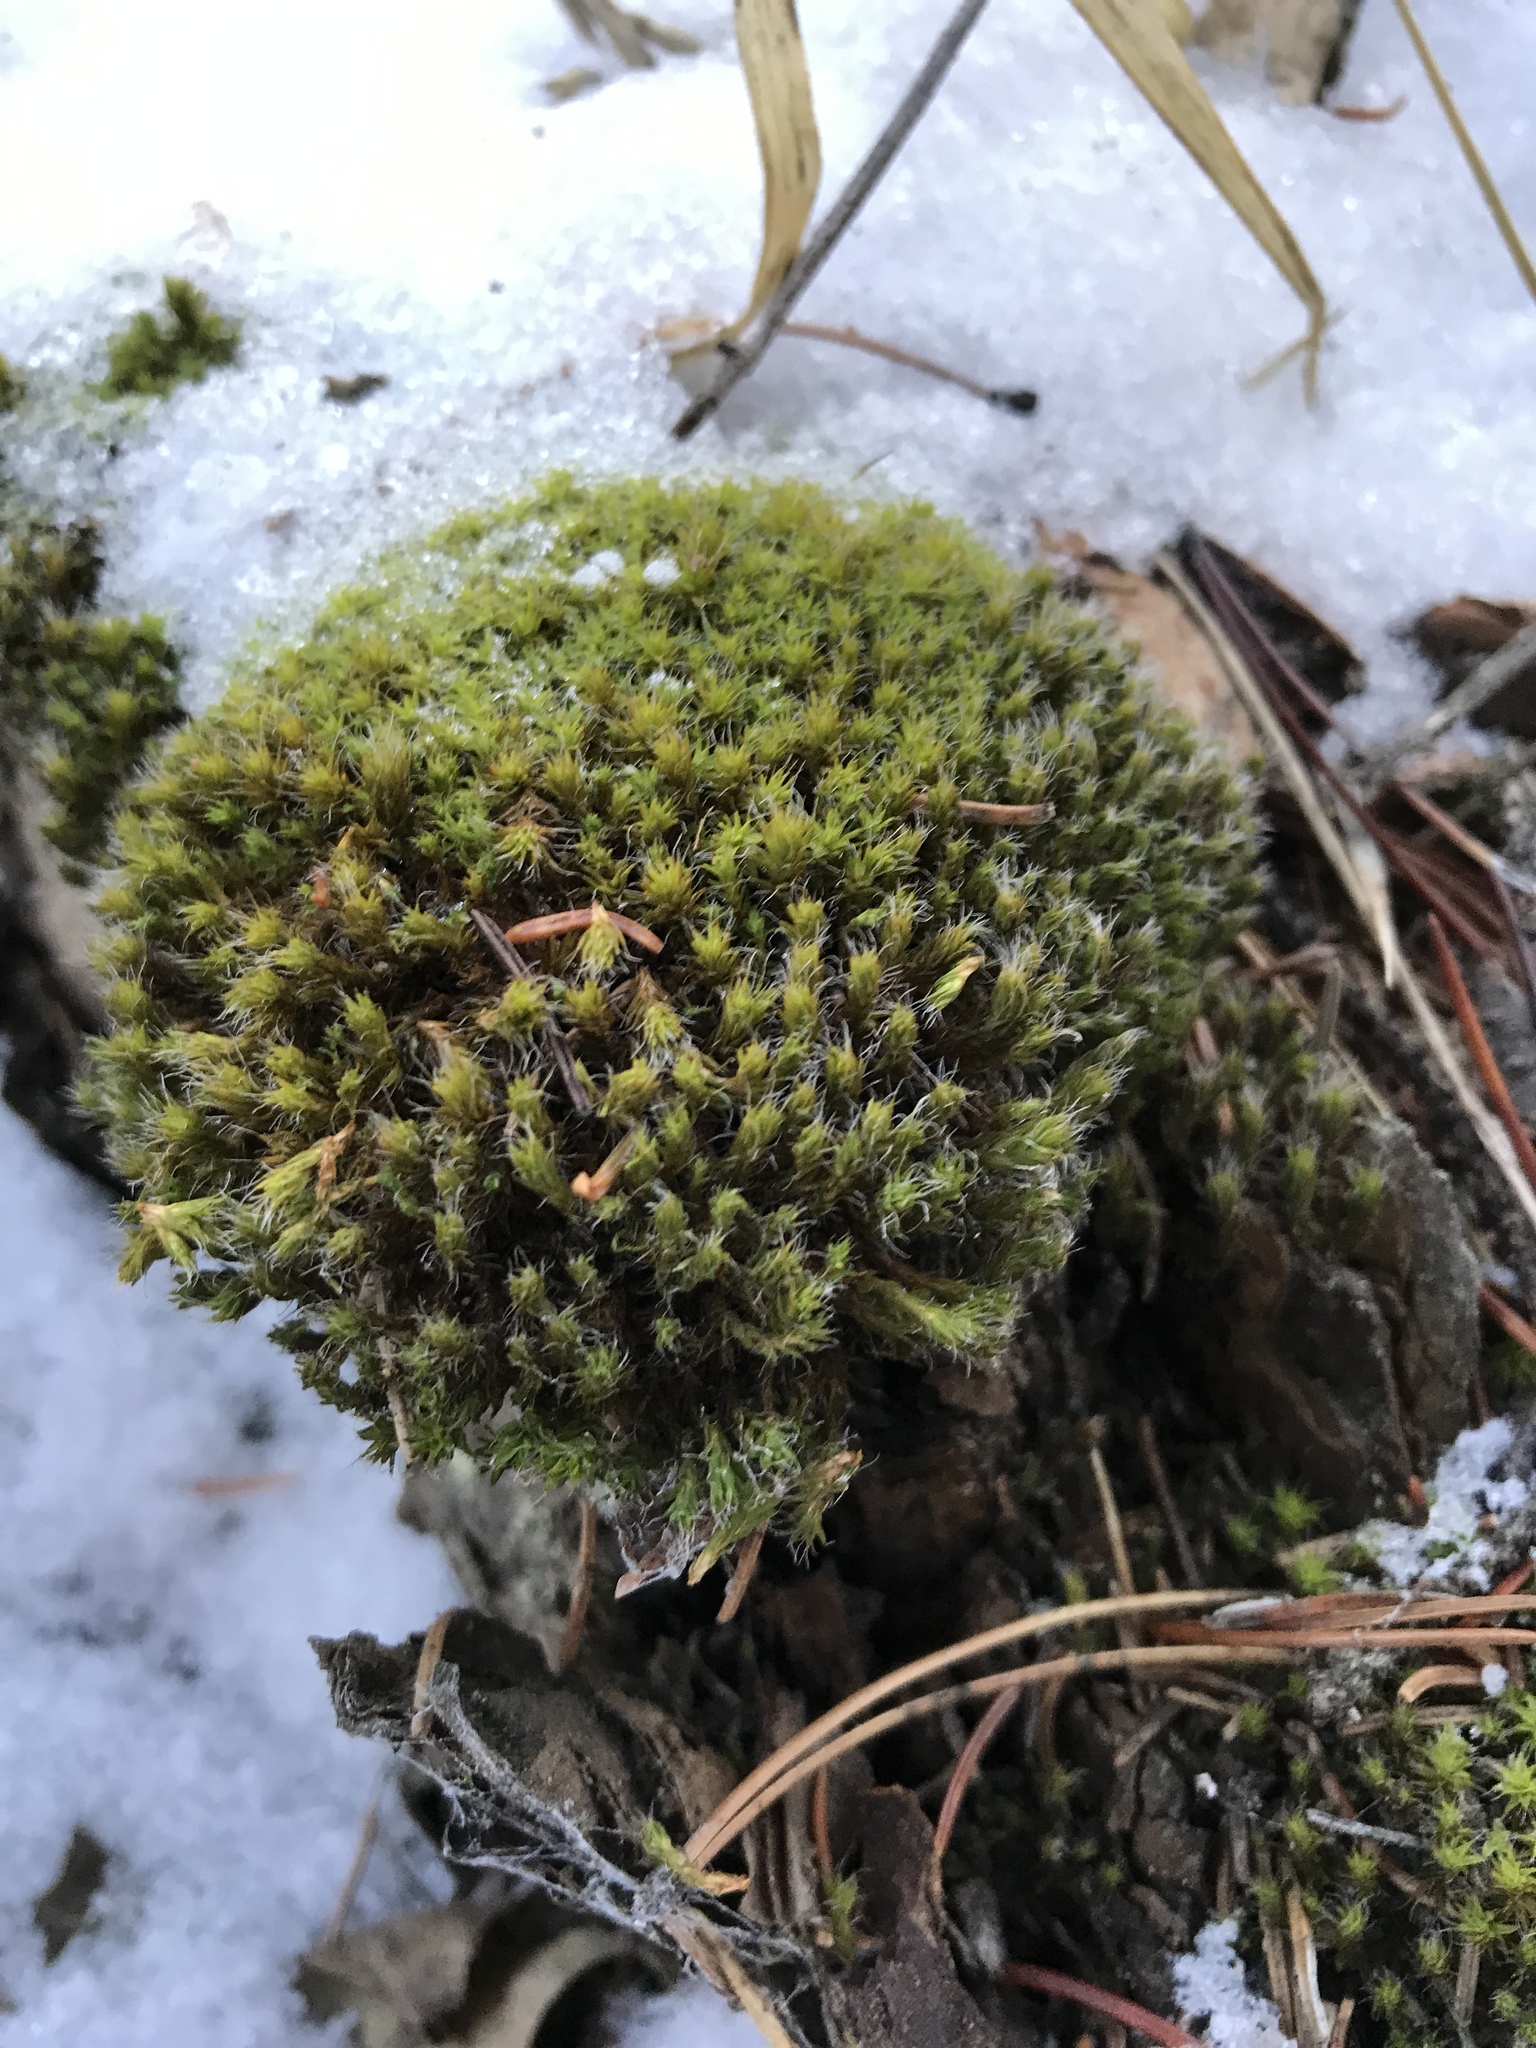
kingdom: Plantae
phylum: Bryophyta
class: Bryopsida
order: Pottiales
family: Pottiaceae
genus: Syntrichia
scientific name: Syntrichia ruralis
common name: Sidewalk screw moss
